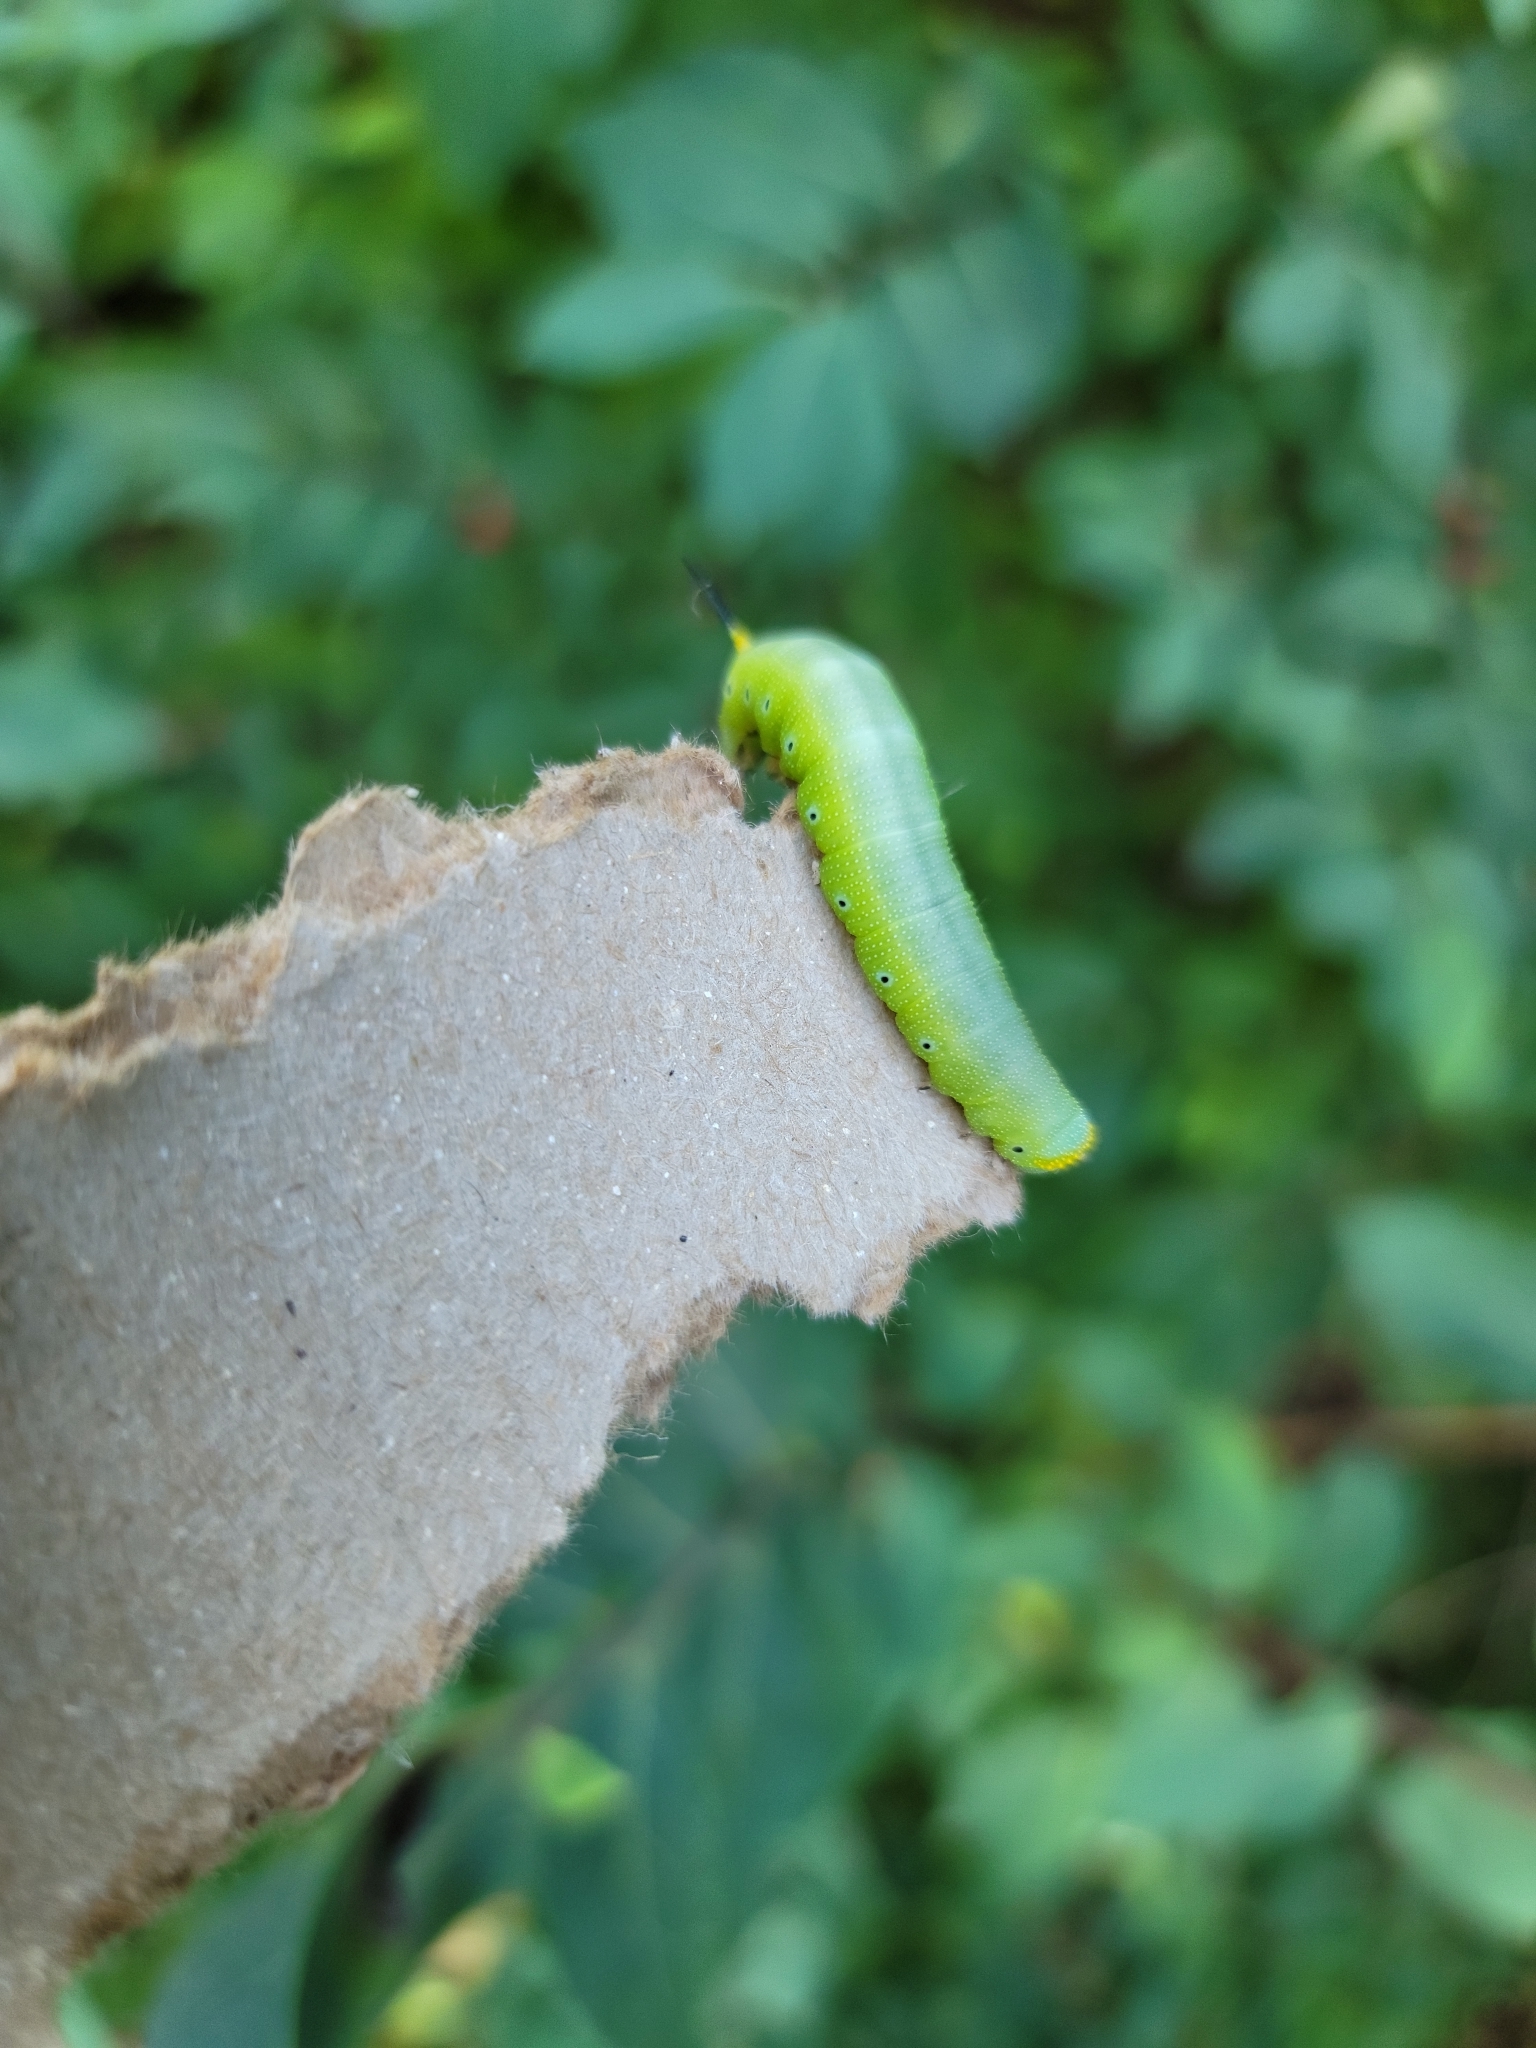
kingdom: Animalia
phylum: Arthropoda
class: Insecta
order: Lepidoptera
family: Sphingidae
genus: Hemaris
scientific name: Hemaris diffinis
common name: Bumblebee moth
